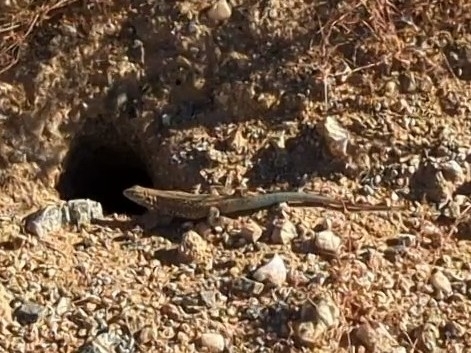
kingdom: Animalia
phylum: Chordata
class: Squamata
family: Phrynosomatidae
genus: Uta
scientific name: Uta stansburiana
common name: Side-blotched lizard
